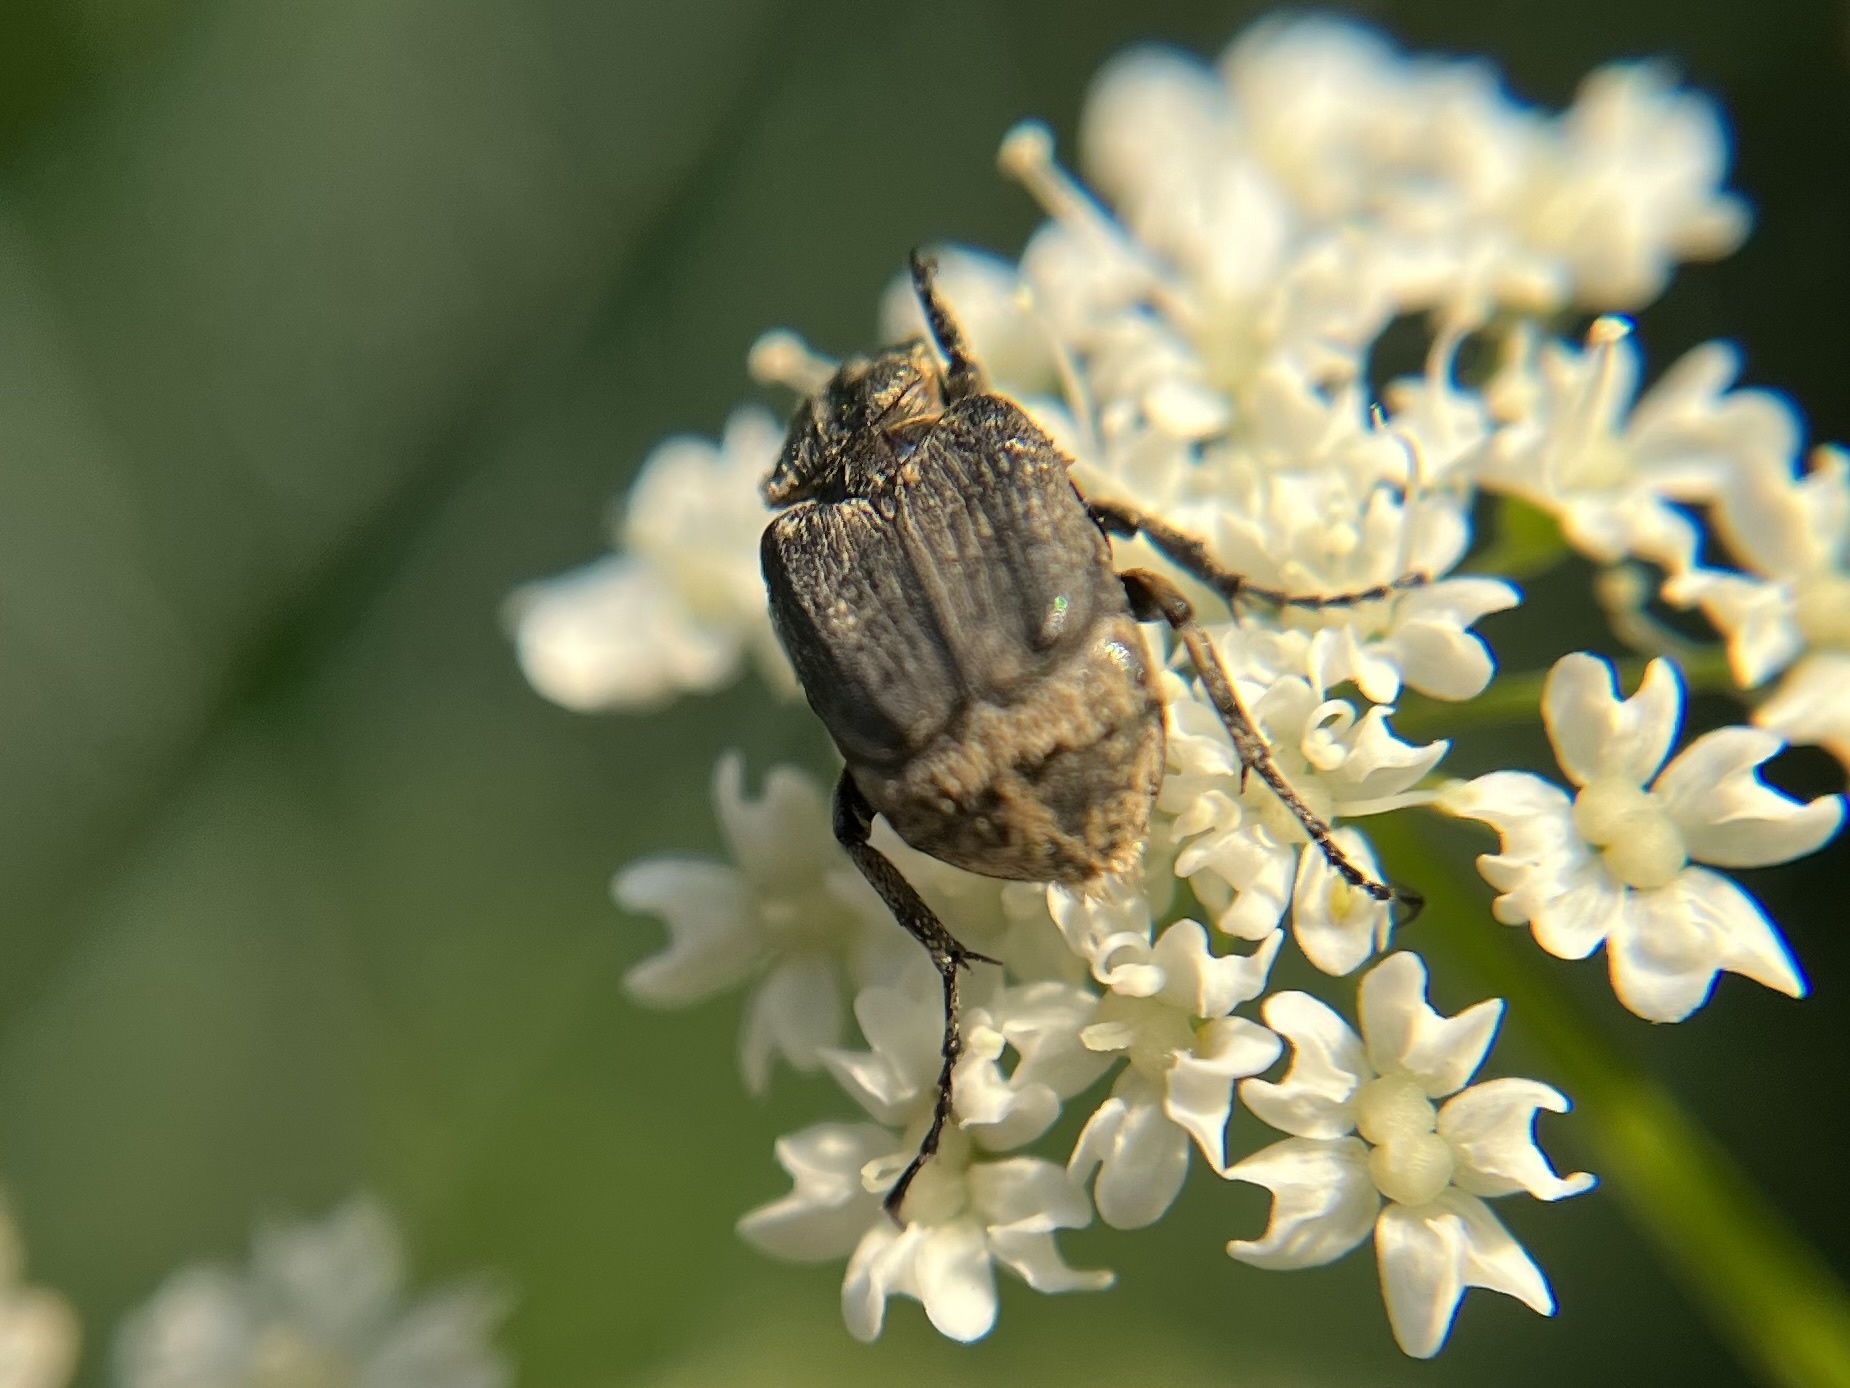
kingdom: Animalia
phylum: Arthropoda
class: Insecta
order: Coleoptera
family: Scarabaeidae
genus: Valgus
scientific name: Valgus hemipterus
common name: Bug flower chafer
